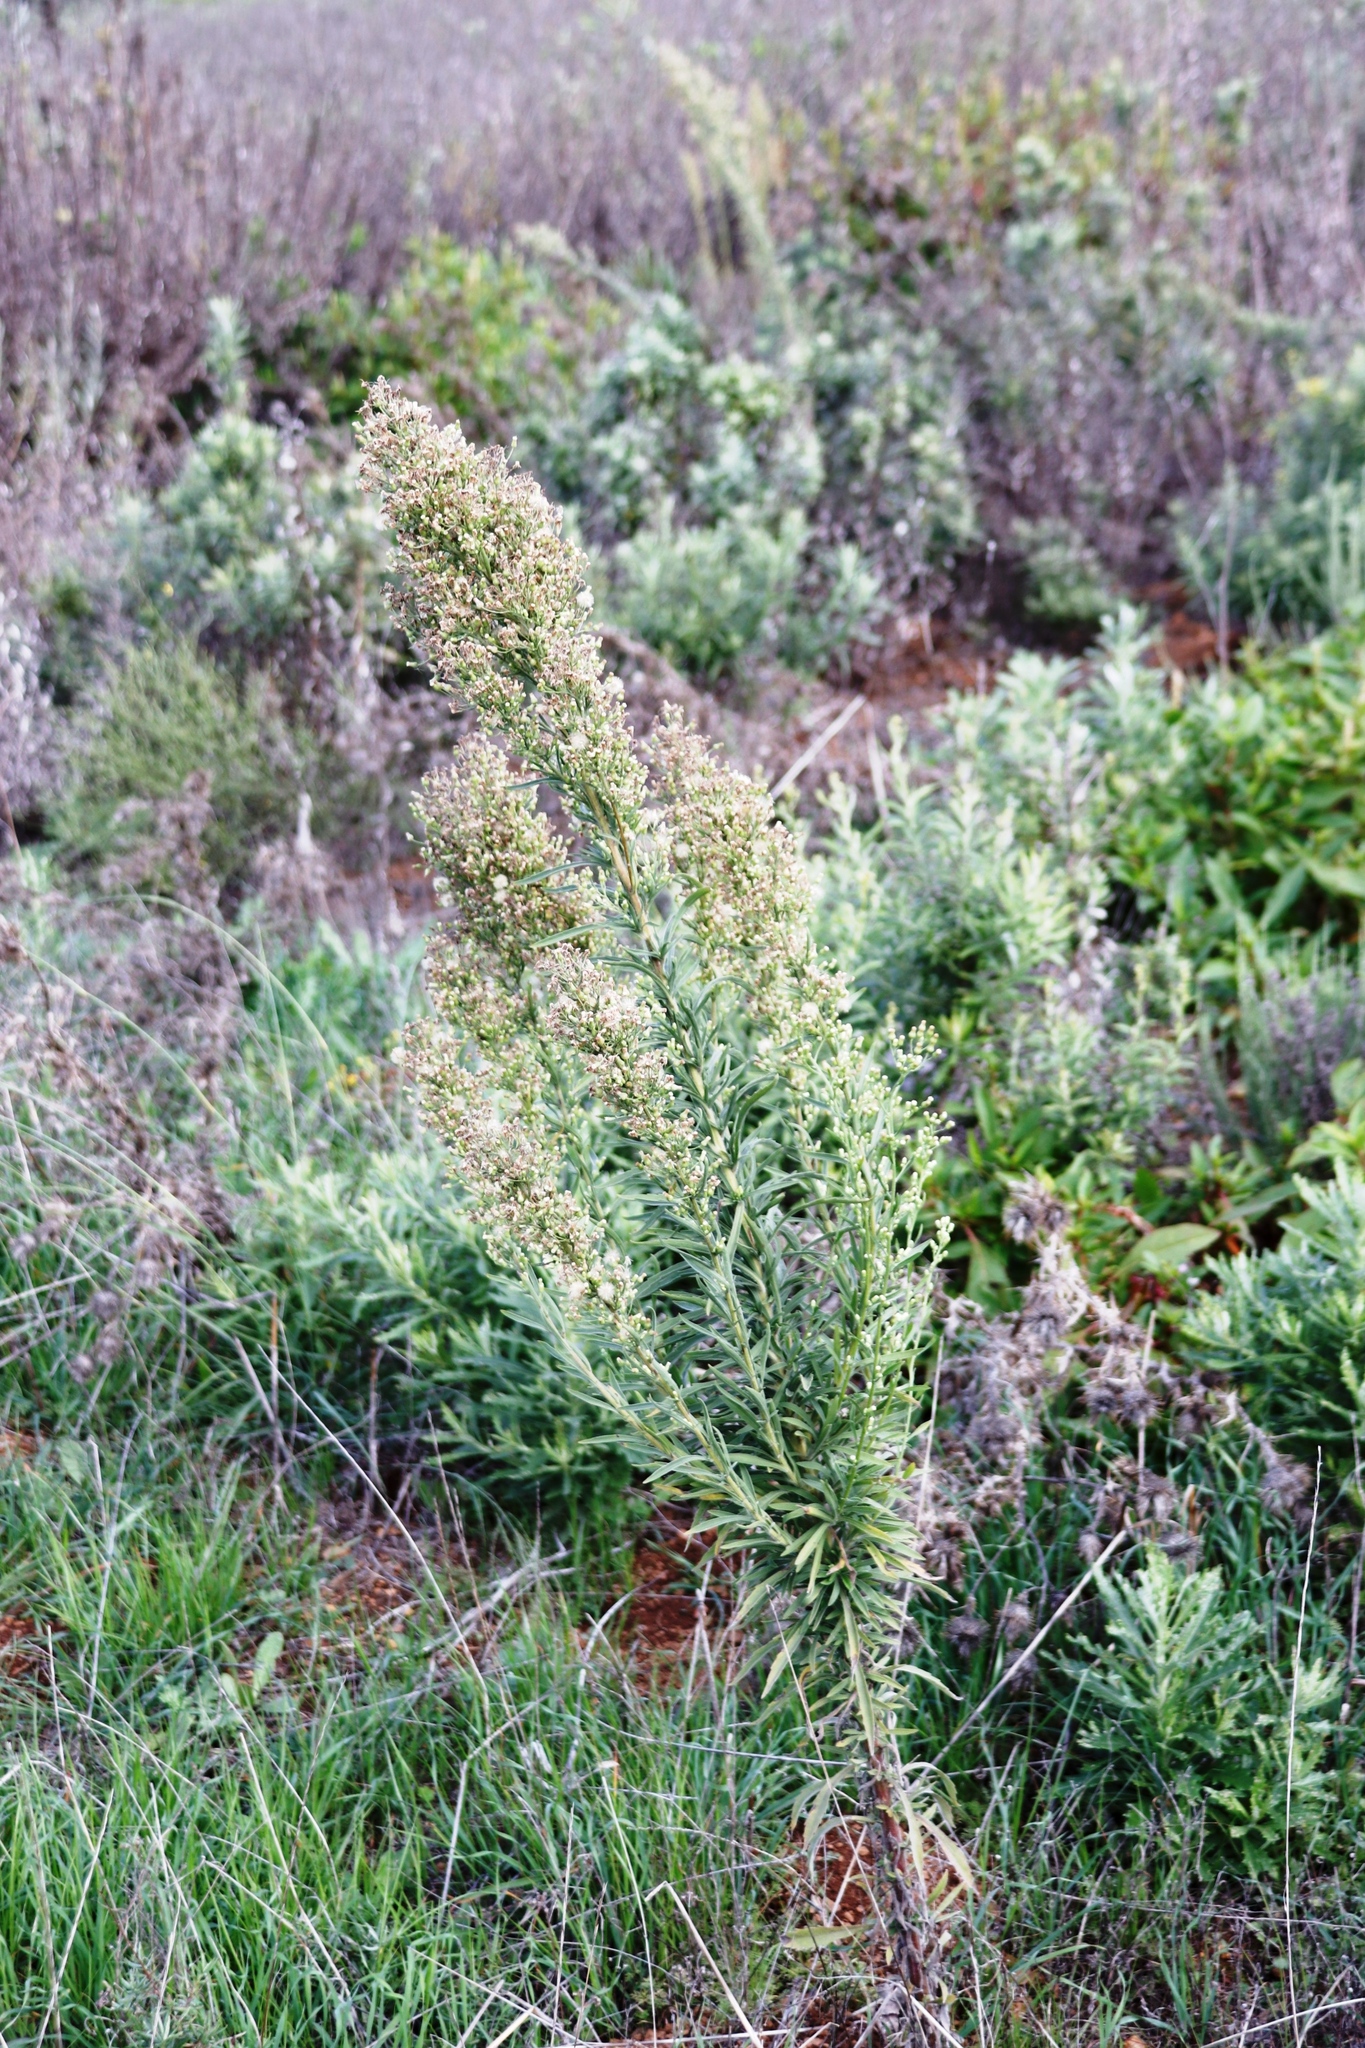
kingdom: Plantae
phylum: Tracheophyta
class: Magnoliopsida
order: Asterales
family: Asteraceae
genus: Erigeron
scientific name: Erigeron sumatrensis
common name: Daisy
